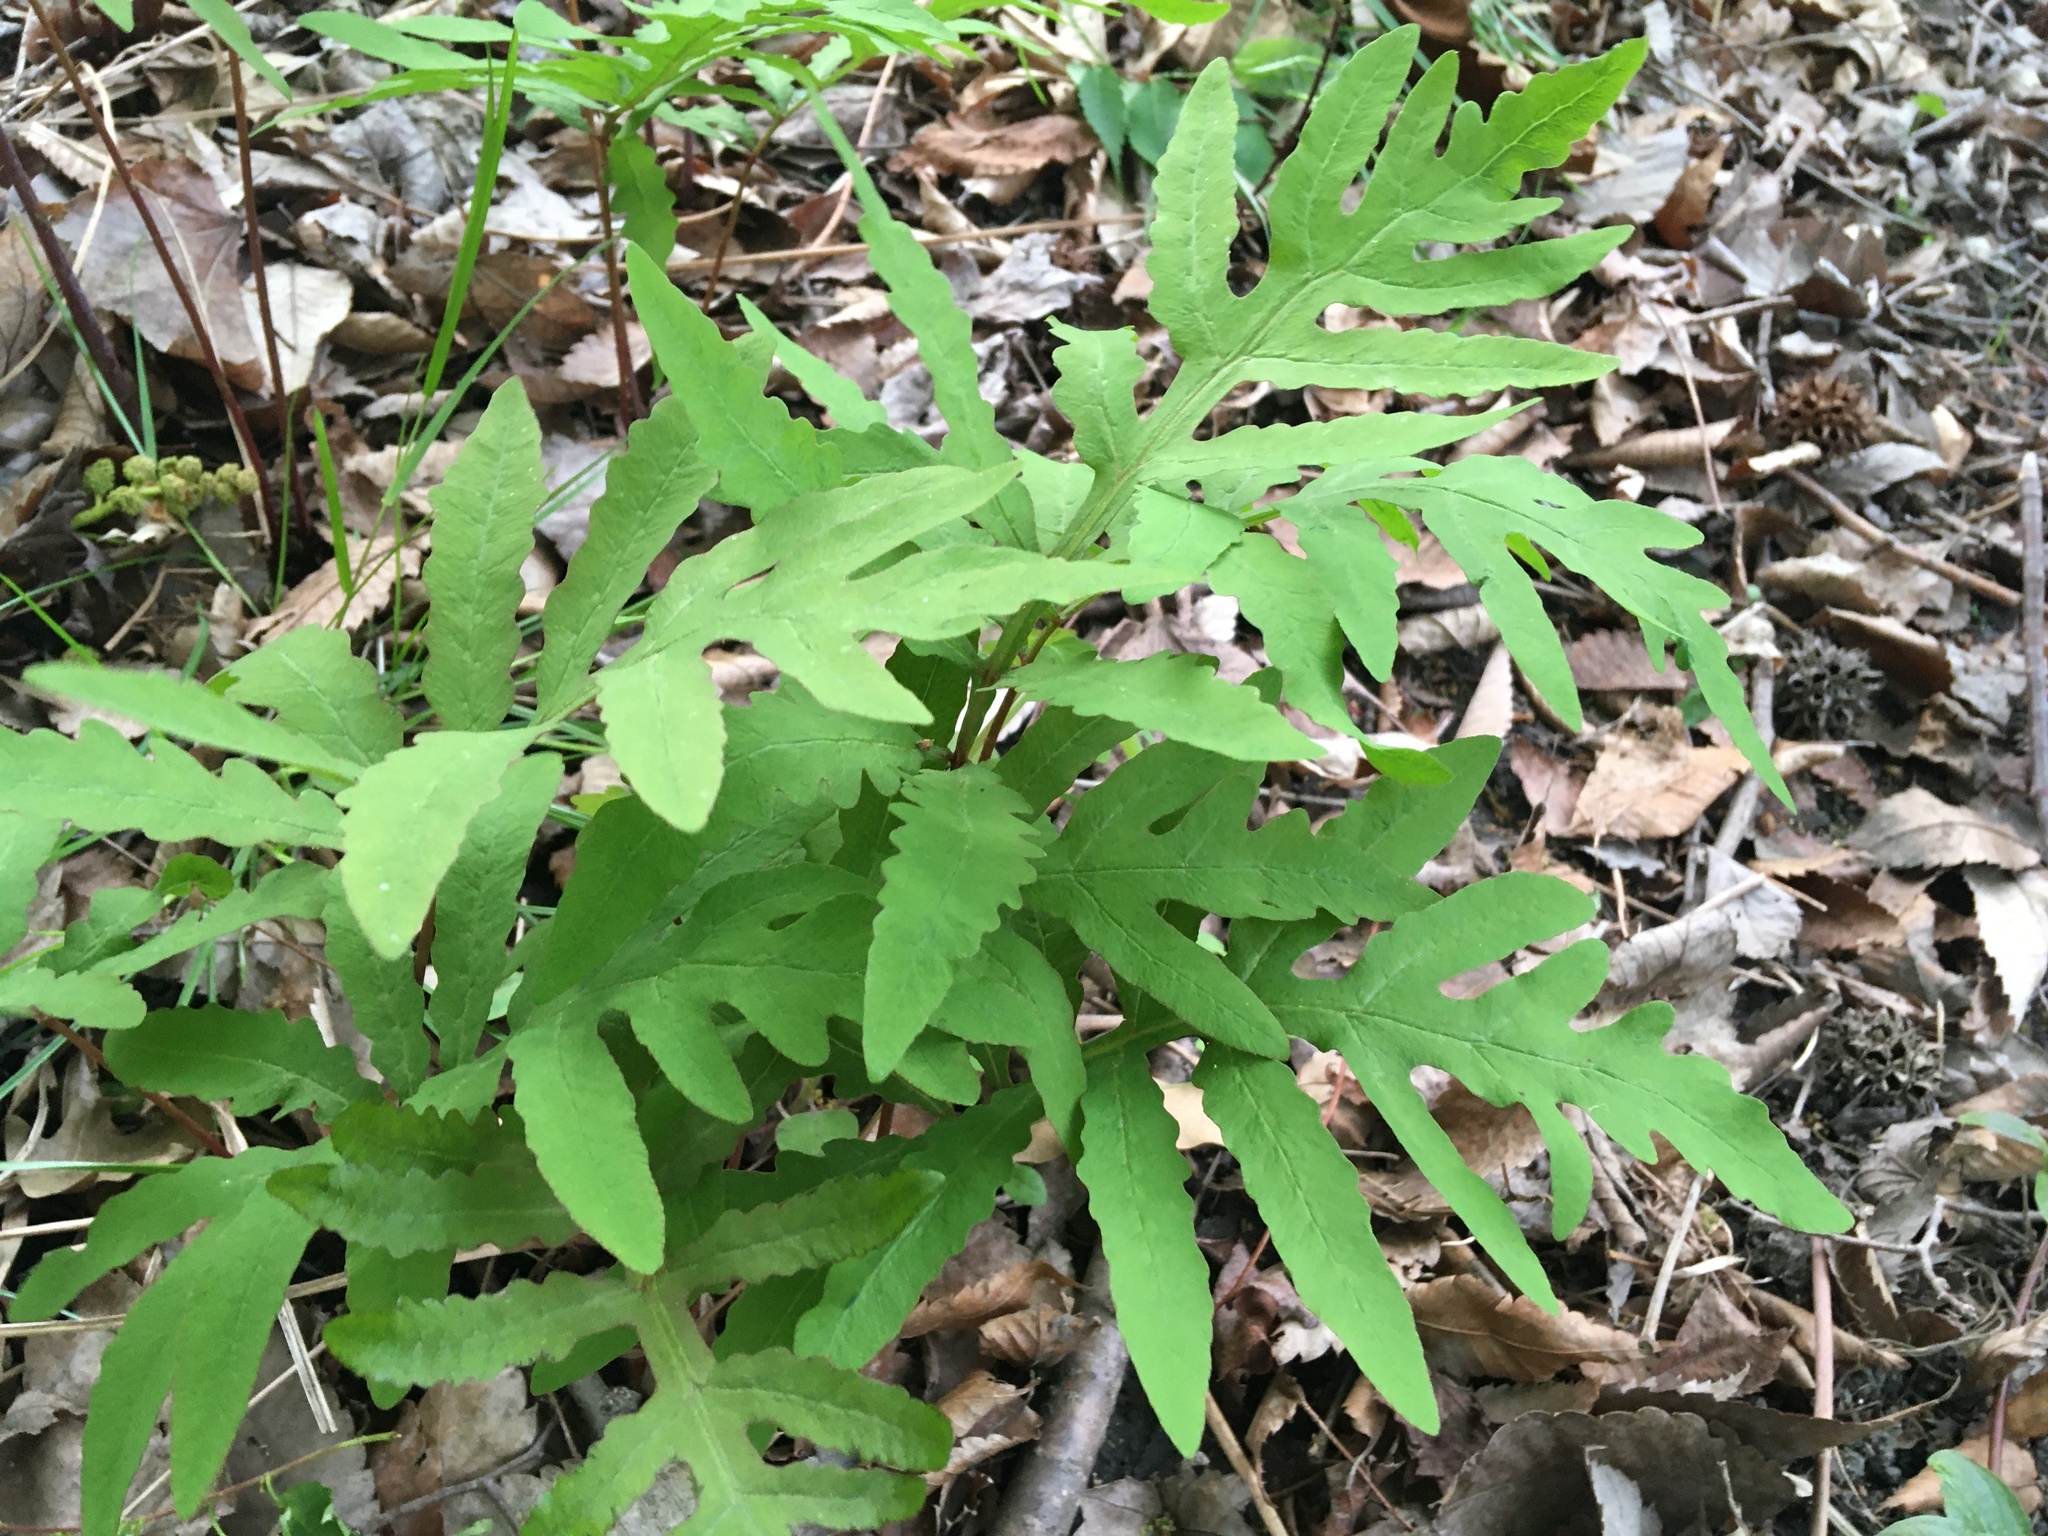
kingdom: Plantae
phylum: Tracheophyta
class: Polypodiopsida
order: Polypodiales
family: Onocleaceae
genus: Onoclea
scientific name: Onoclea sensibilis
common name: Sensitive fern
